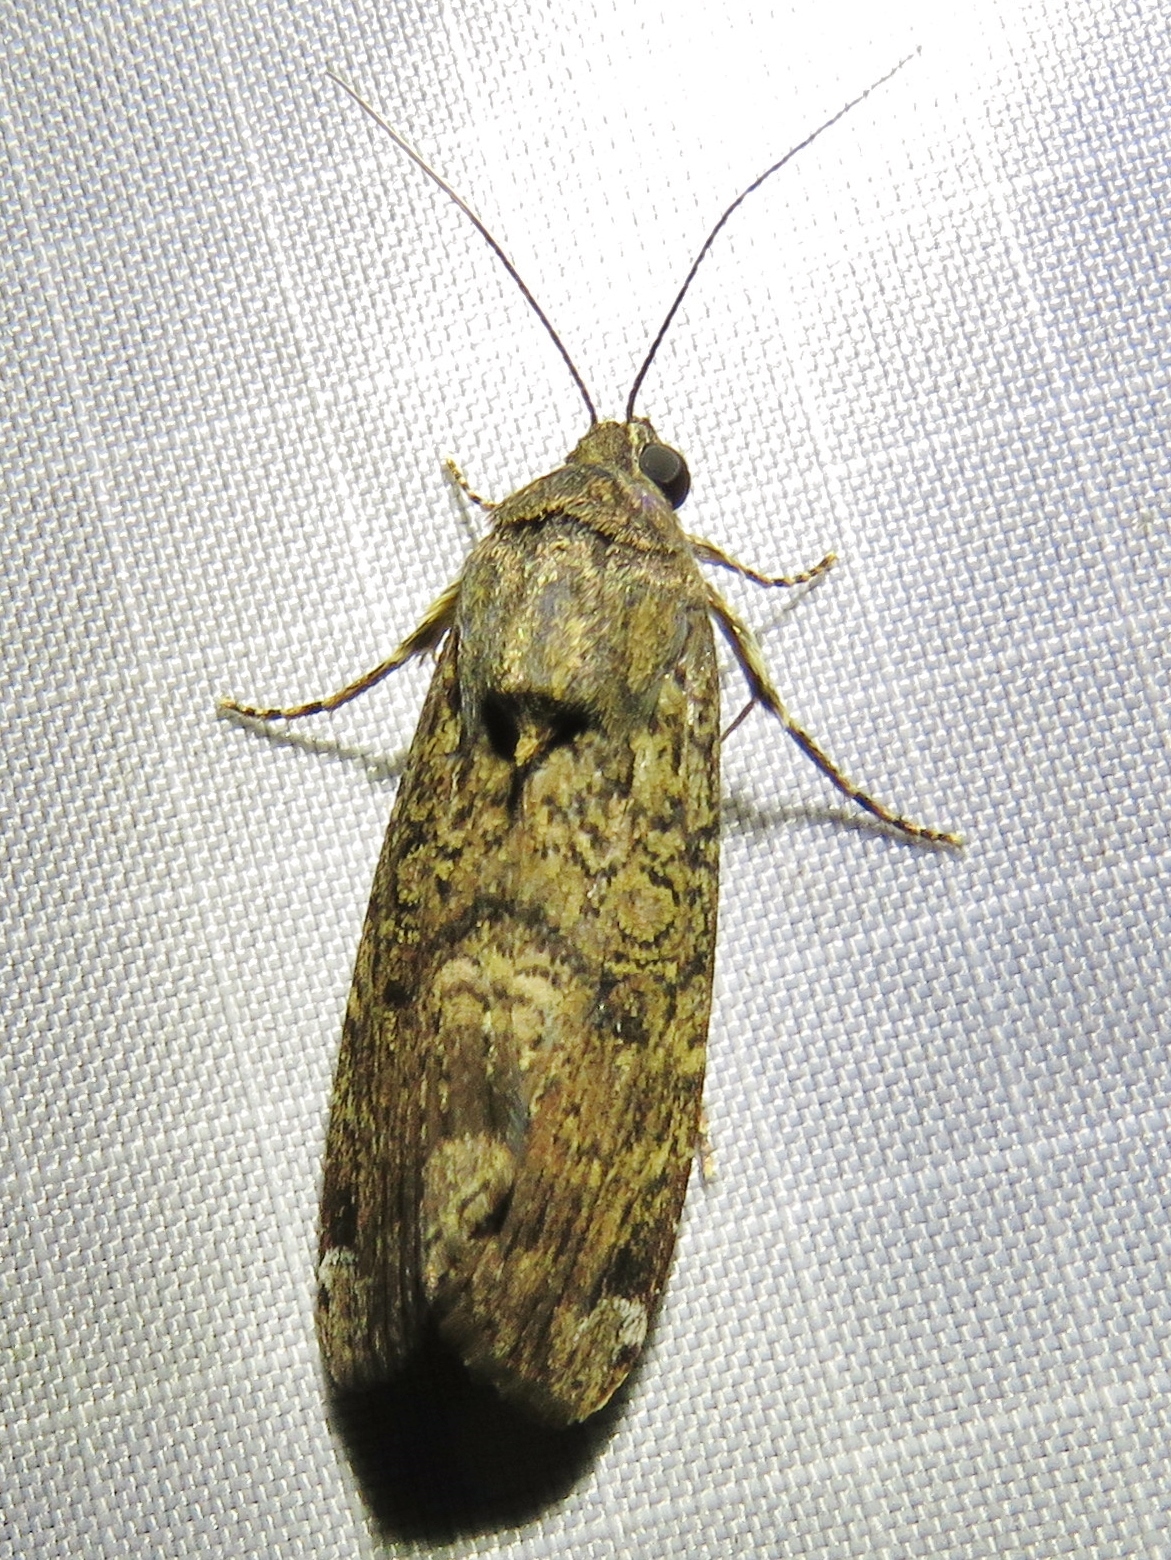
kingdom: Animalia
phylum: Arthropoda
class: Insecta
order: Lepidoptera
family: Noctuidae
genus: Magusa
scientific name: Magusa divaricata
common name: Orb narrow-winged moth
